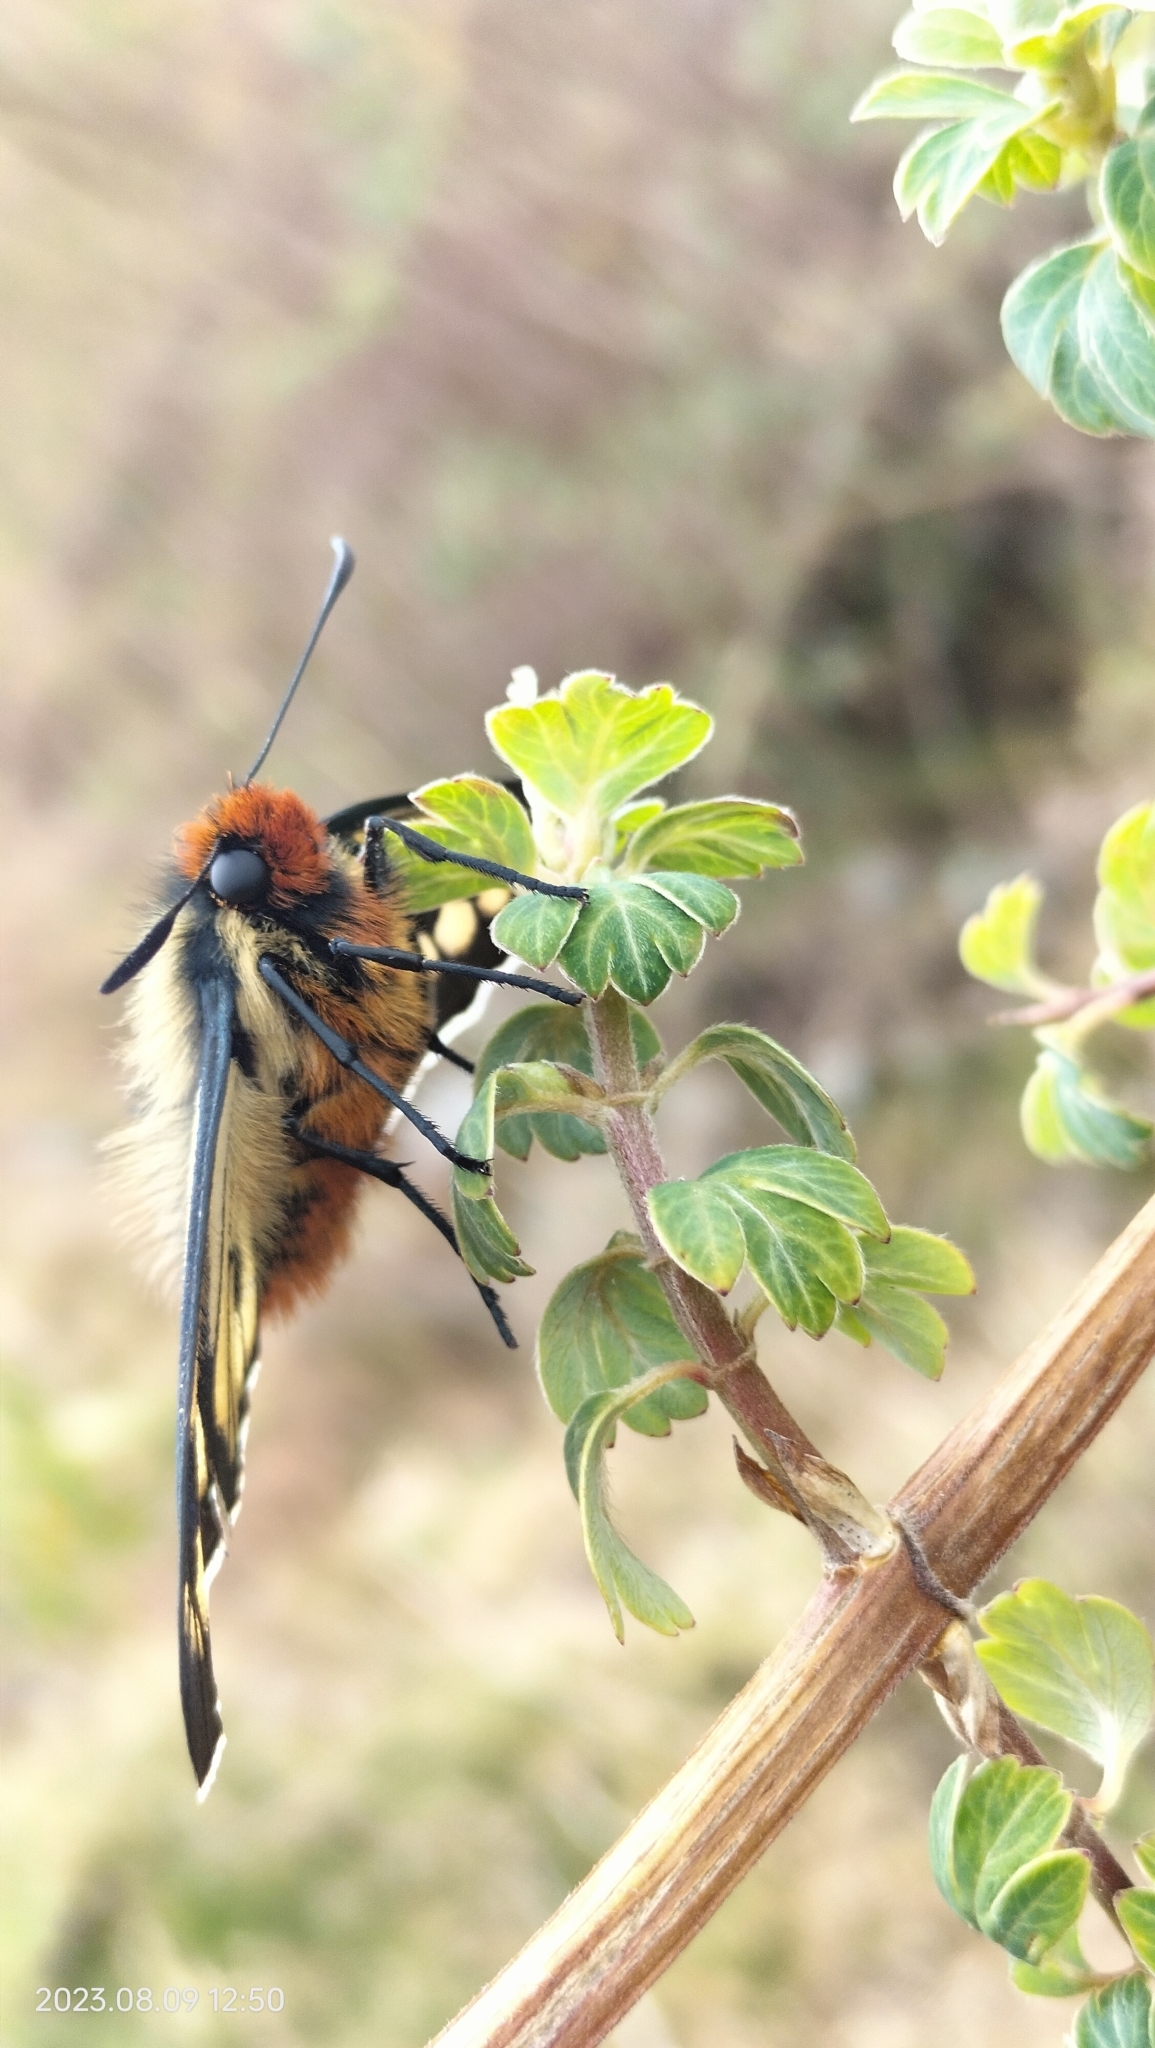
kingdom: Animalia
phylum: Arthropoda
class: Insecta
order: Lepidoptera
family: Hesperiidae
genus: Metardaris
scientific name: Metardaris cosinga
